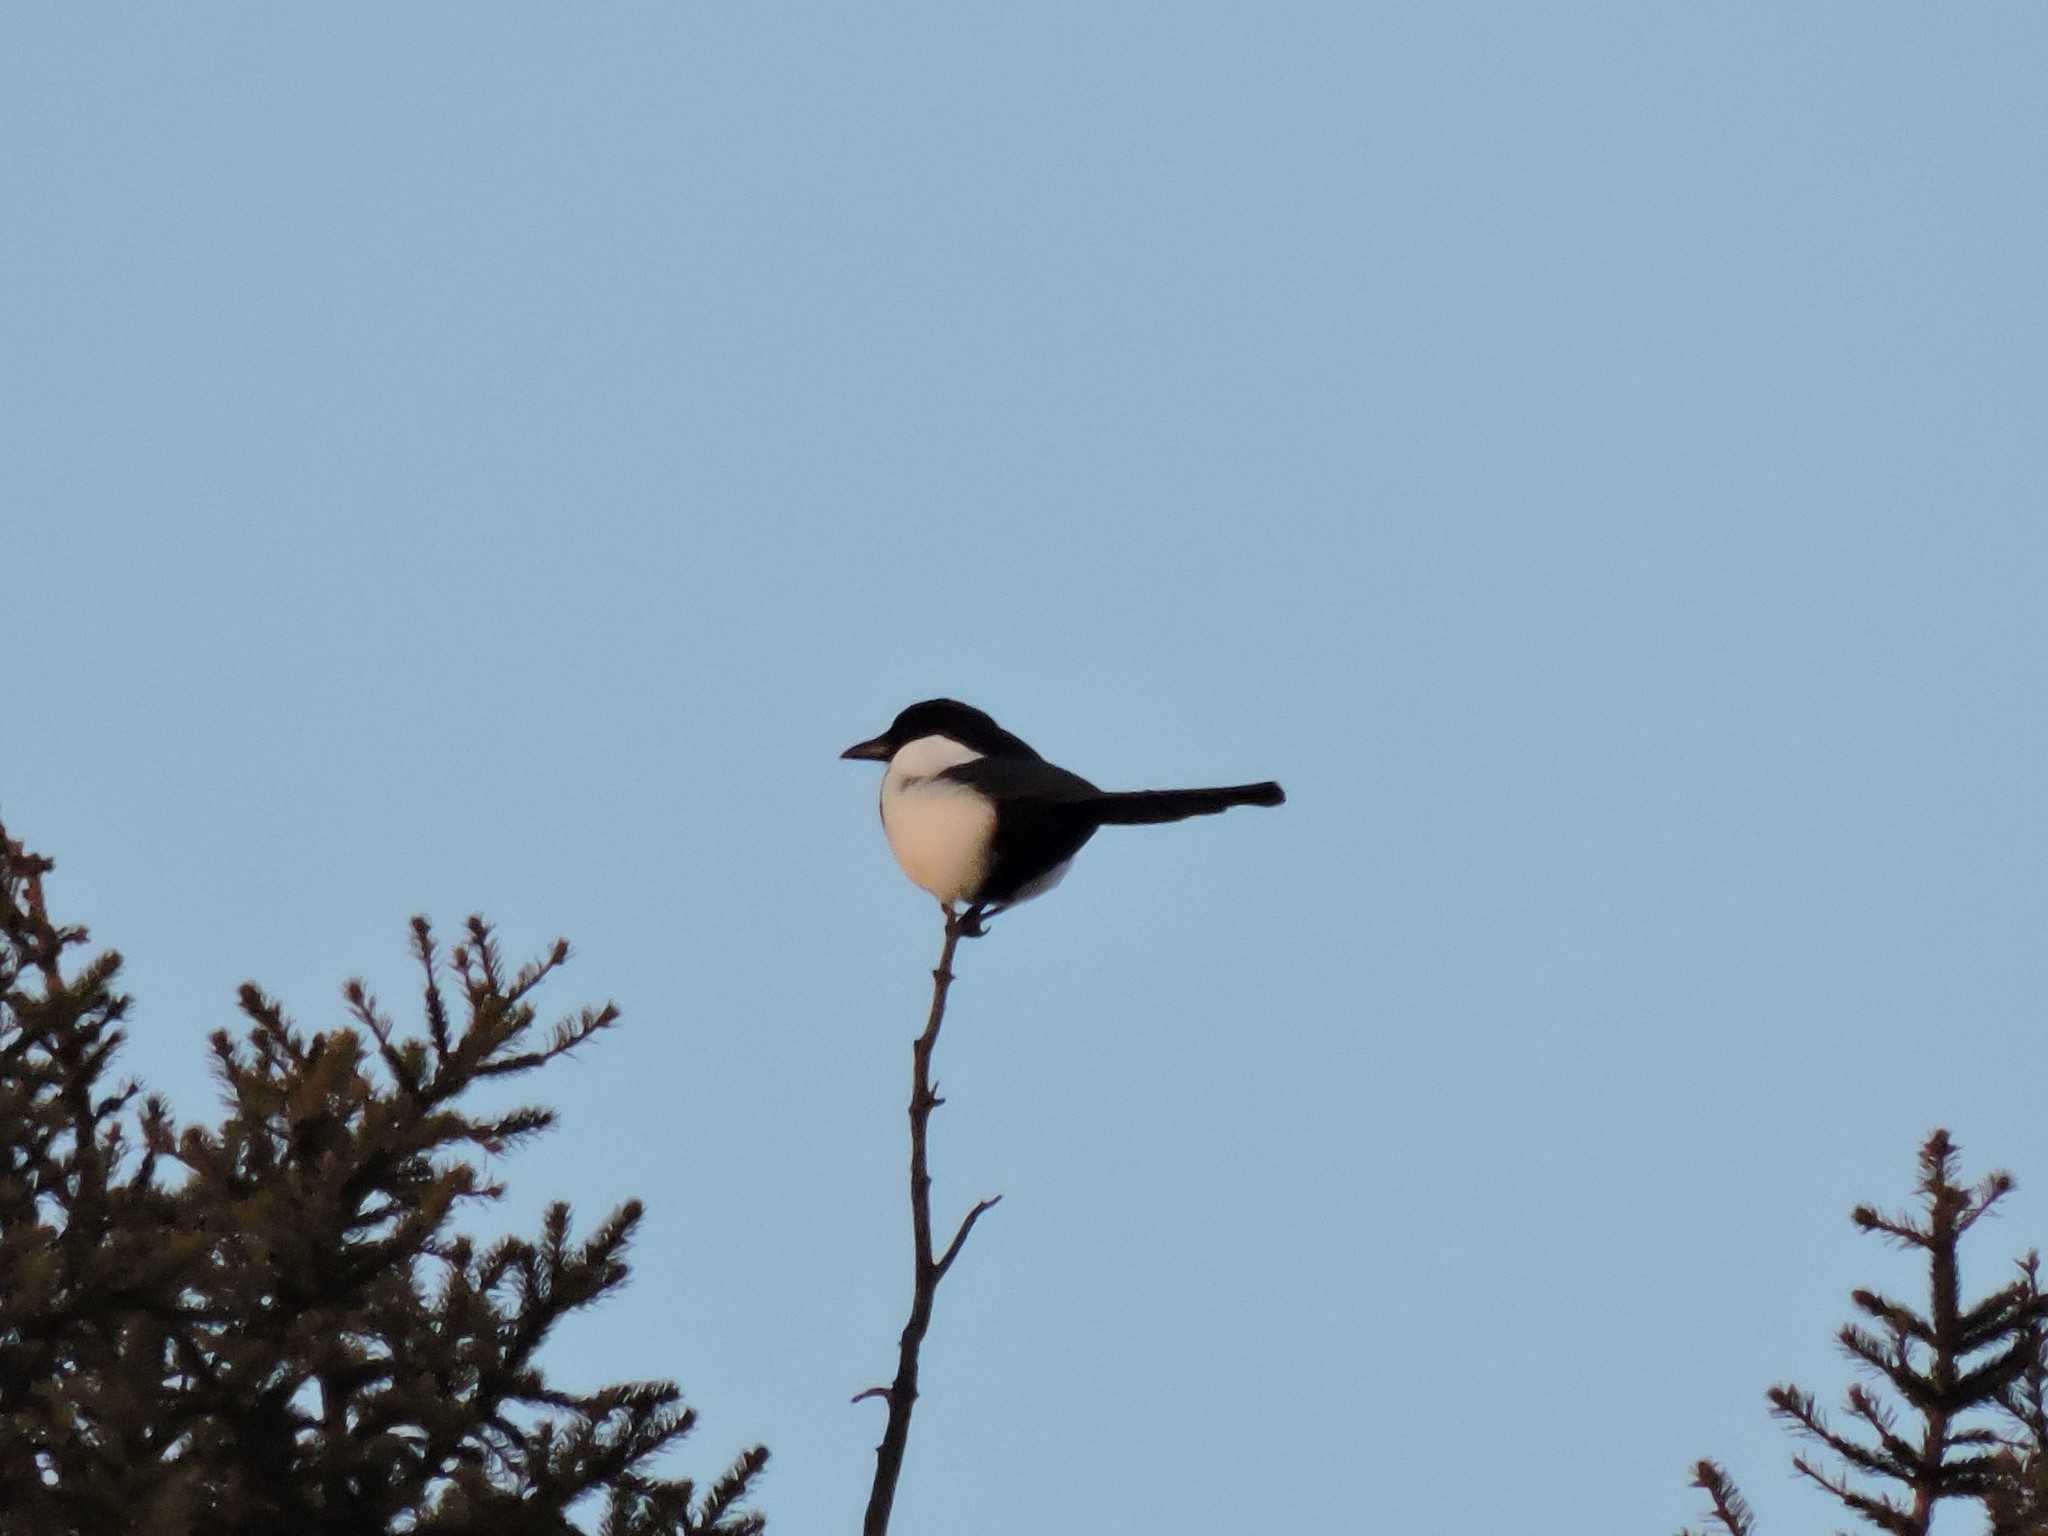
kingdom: Animalia
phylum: Chordata
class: Aves
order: Passeriformes
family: Corvidae
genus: Pica
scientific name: Pica pica
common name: Eurasian magpie
